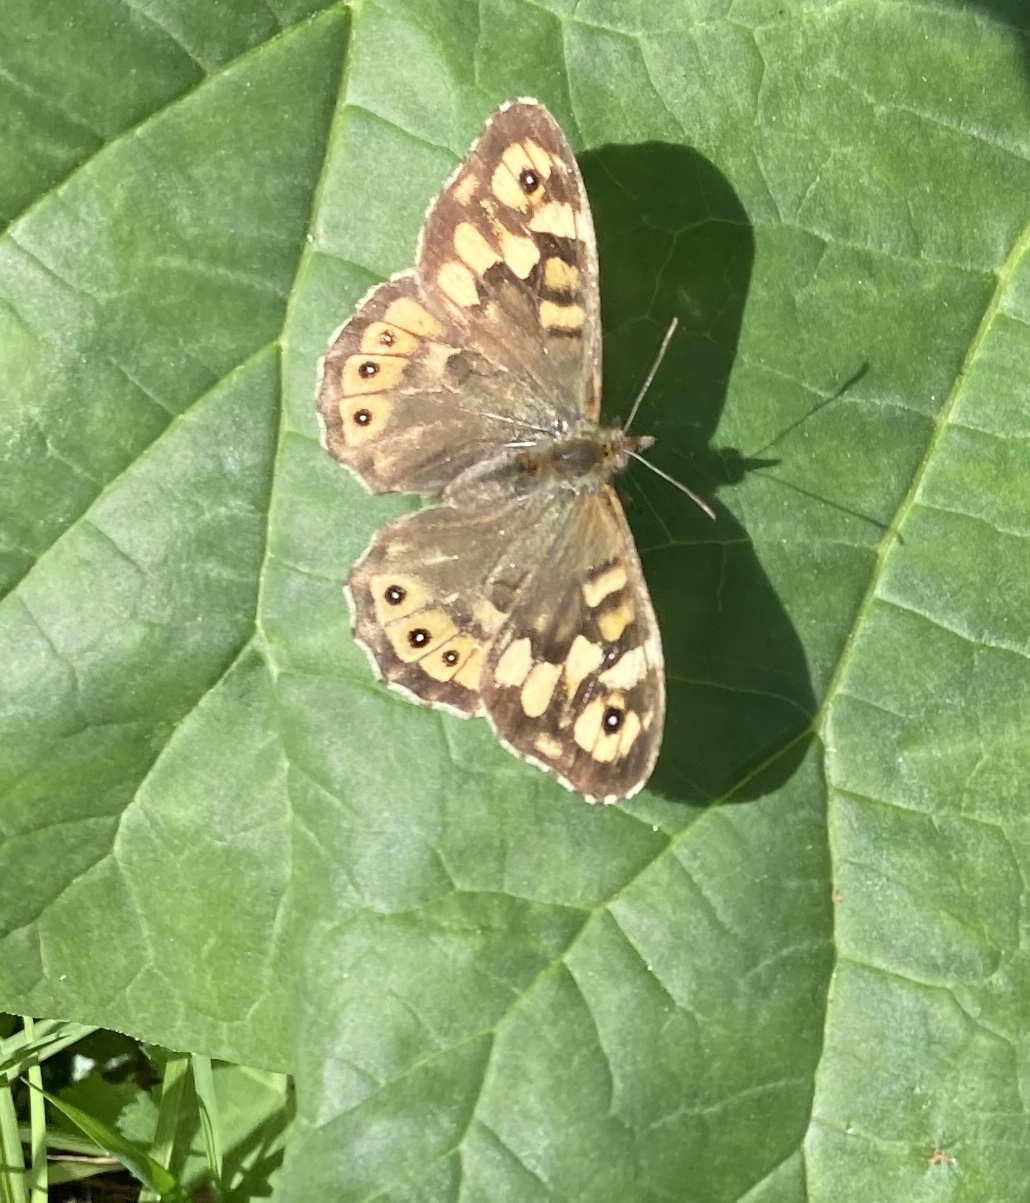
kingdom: Animalia
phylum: Arthropoda
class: Insecta
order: Lepidoptera
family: Nymphalidae
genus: Pararge
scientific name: Pararge aegeria
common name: Speckled wood
